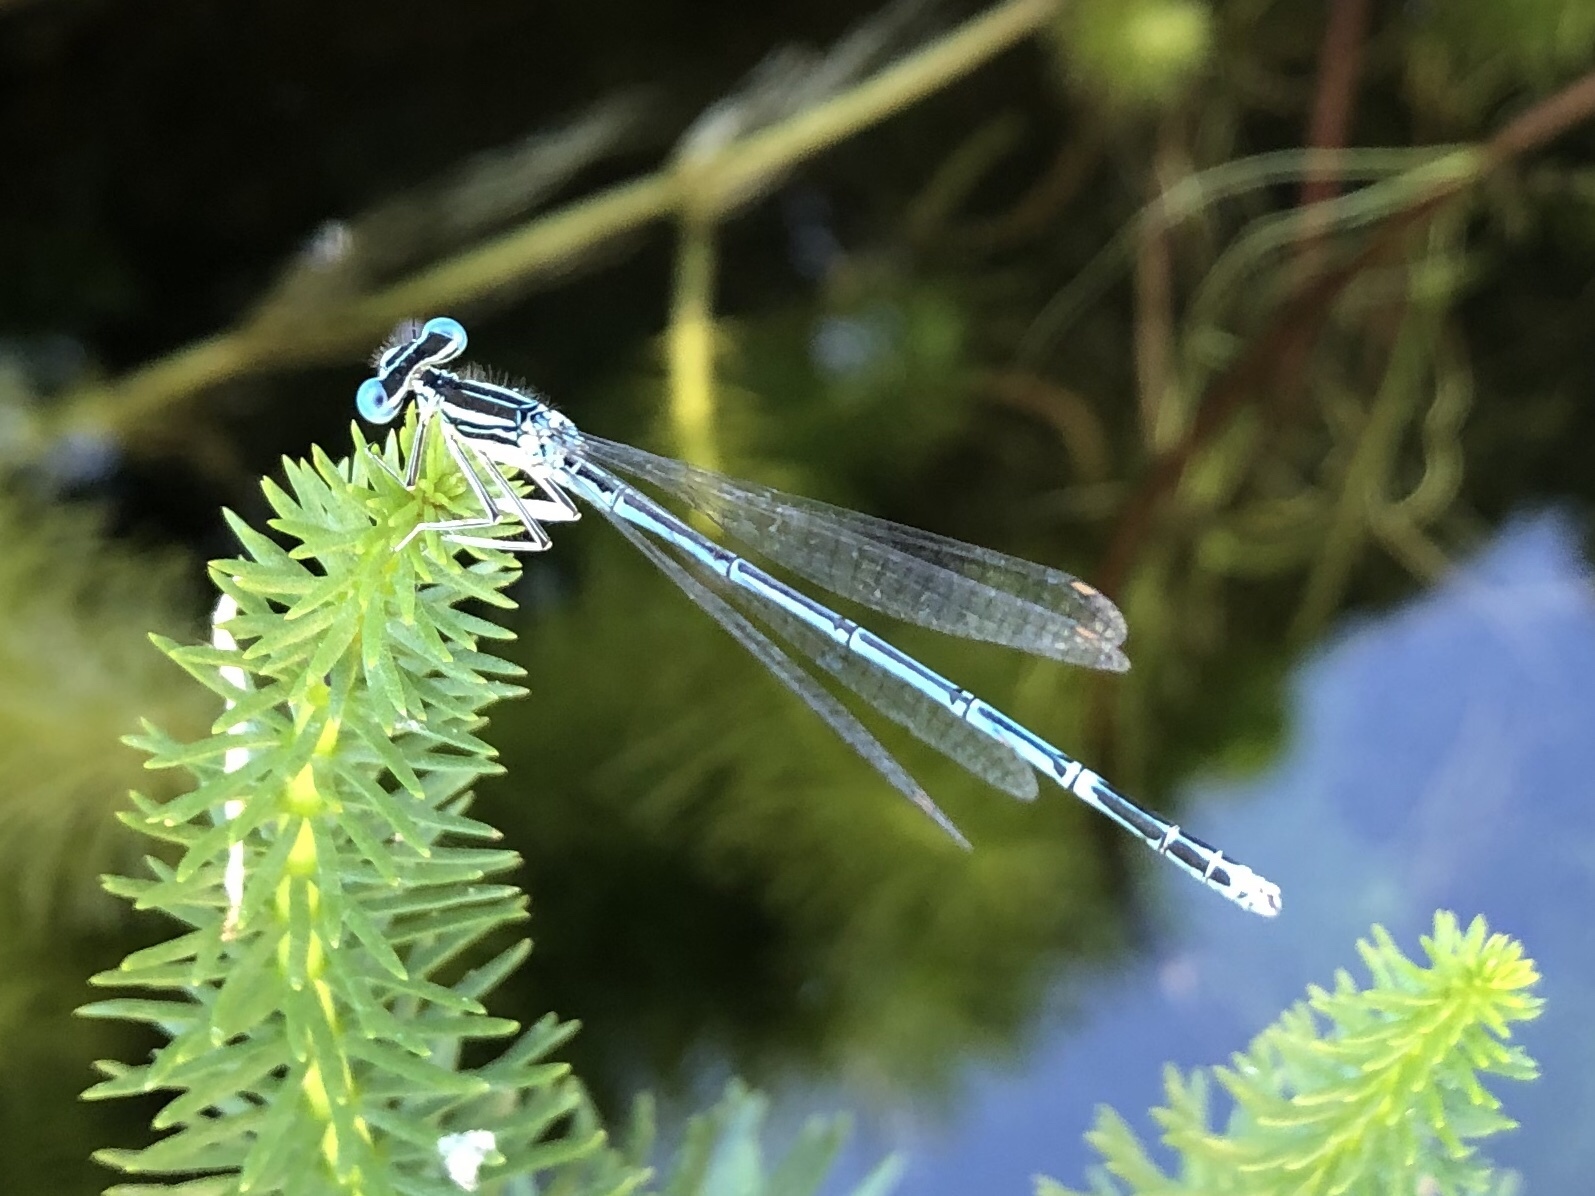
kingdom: Animalia
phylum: Arthropoda
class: Insecta
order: Odonata
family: Platycnemididae
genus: Platycnemis
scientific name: Platycnemis pennipes
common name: White-legged damselfly
